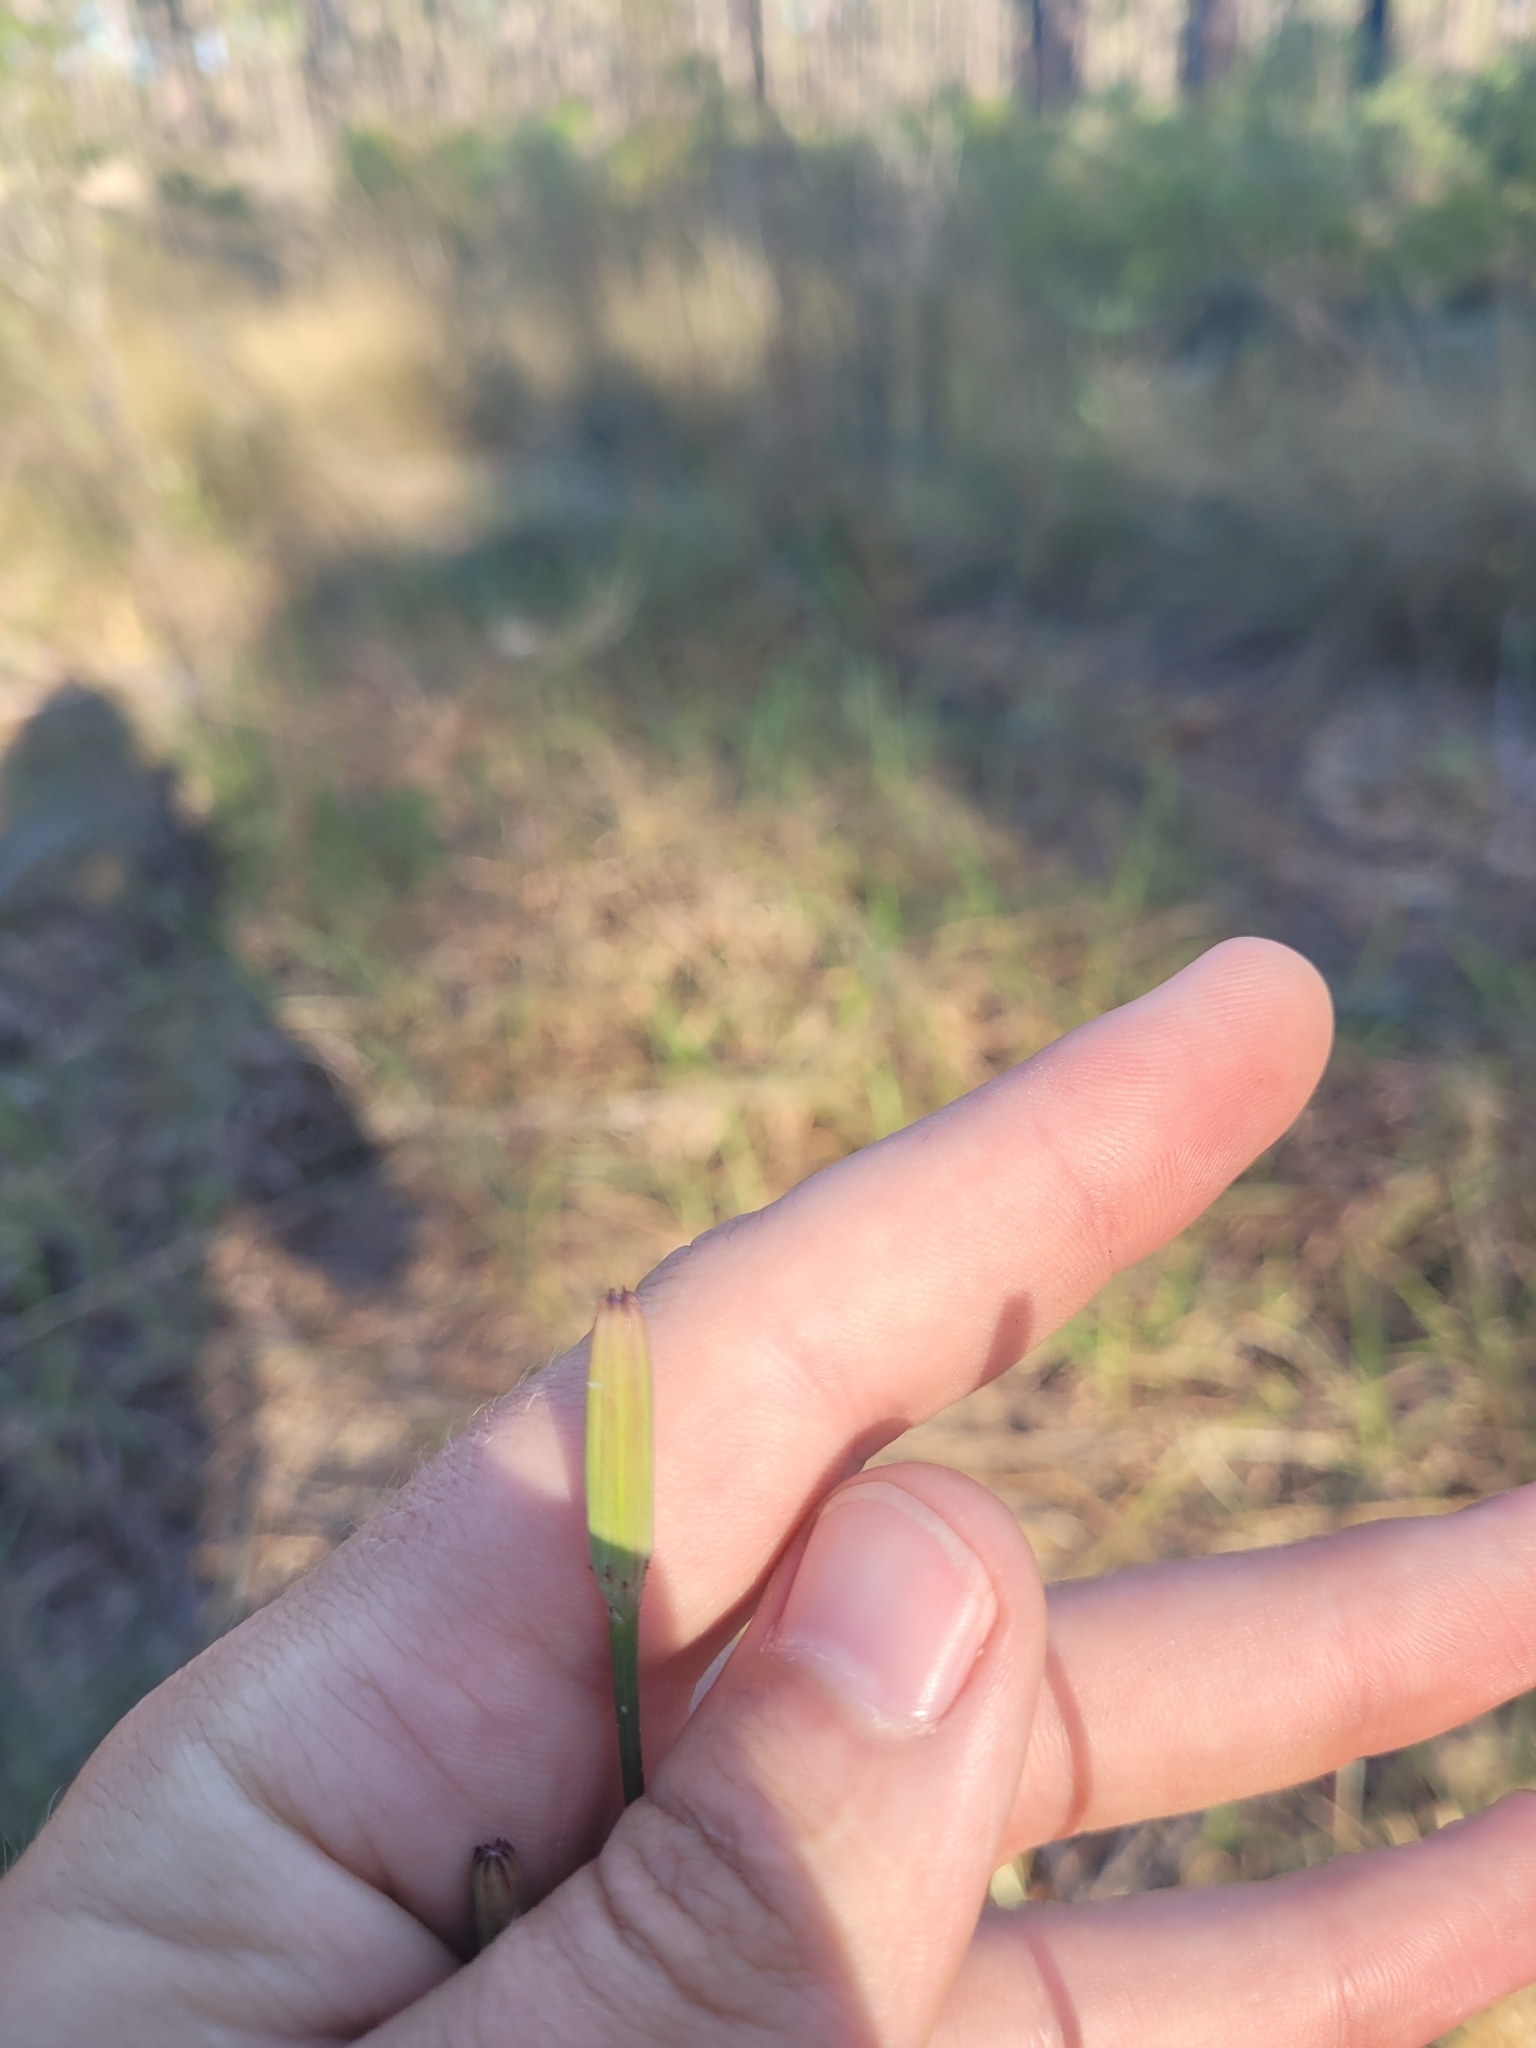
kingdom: Plantae
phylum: Tracheophyta
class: Magnoliopsida
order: Asterales
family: Asteraceae
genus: Lygodesmia
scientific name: Lygodesmia aphylla
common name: Rose-rush
